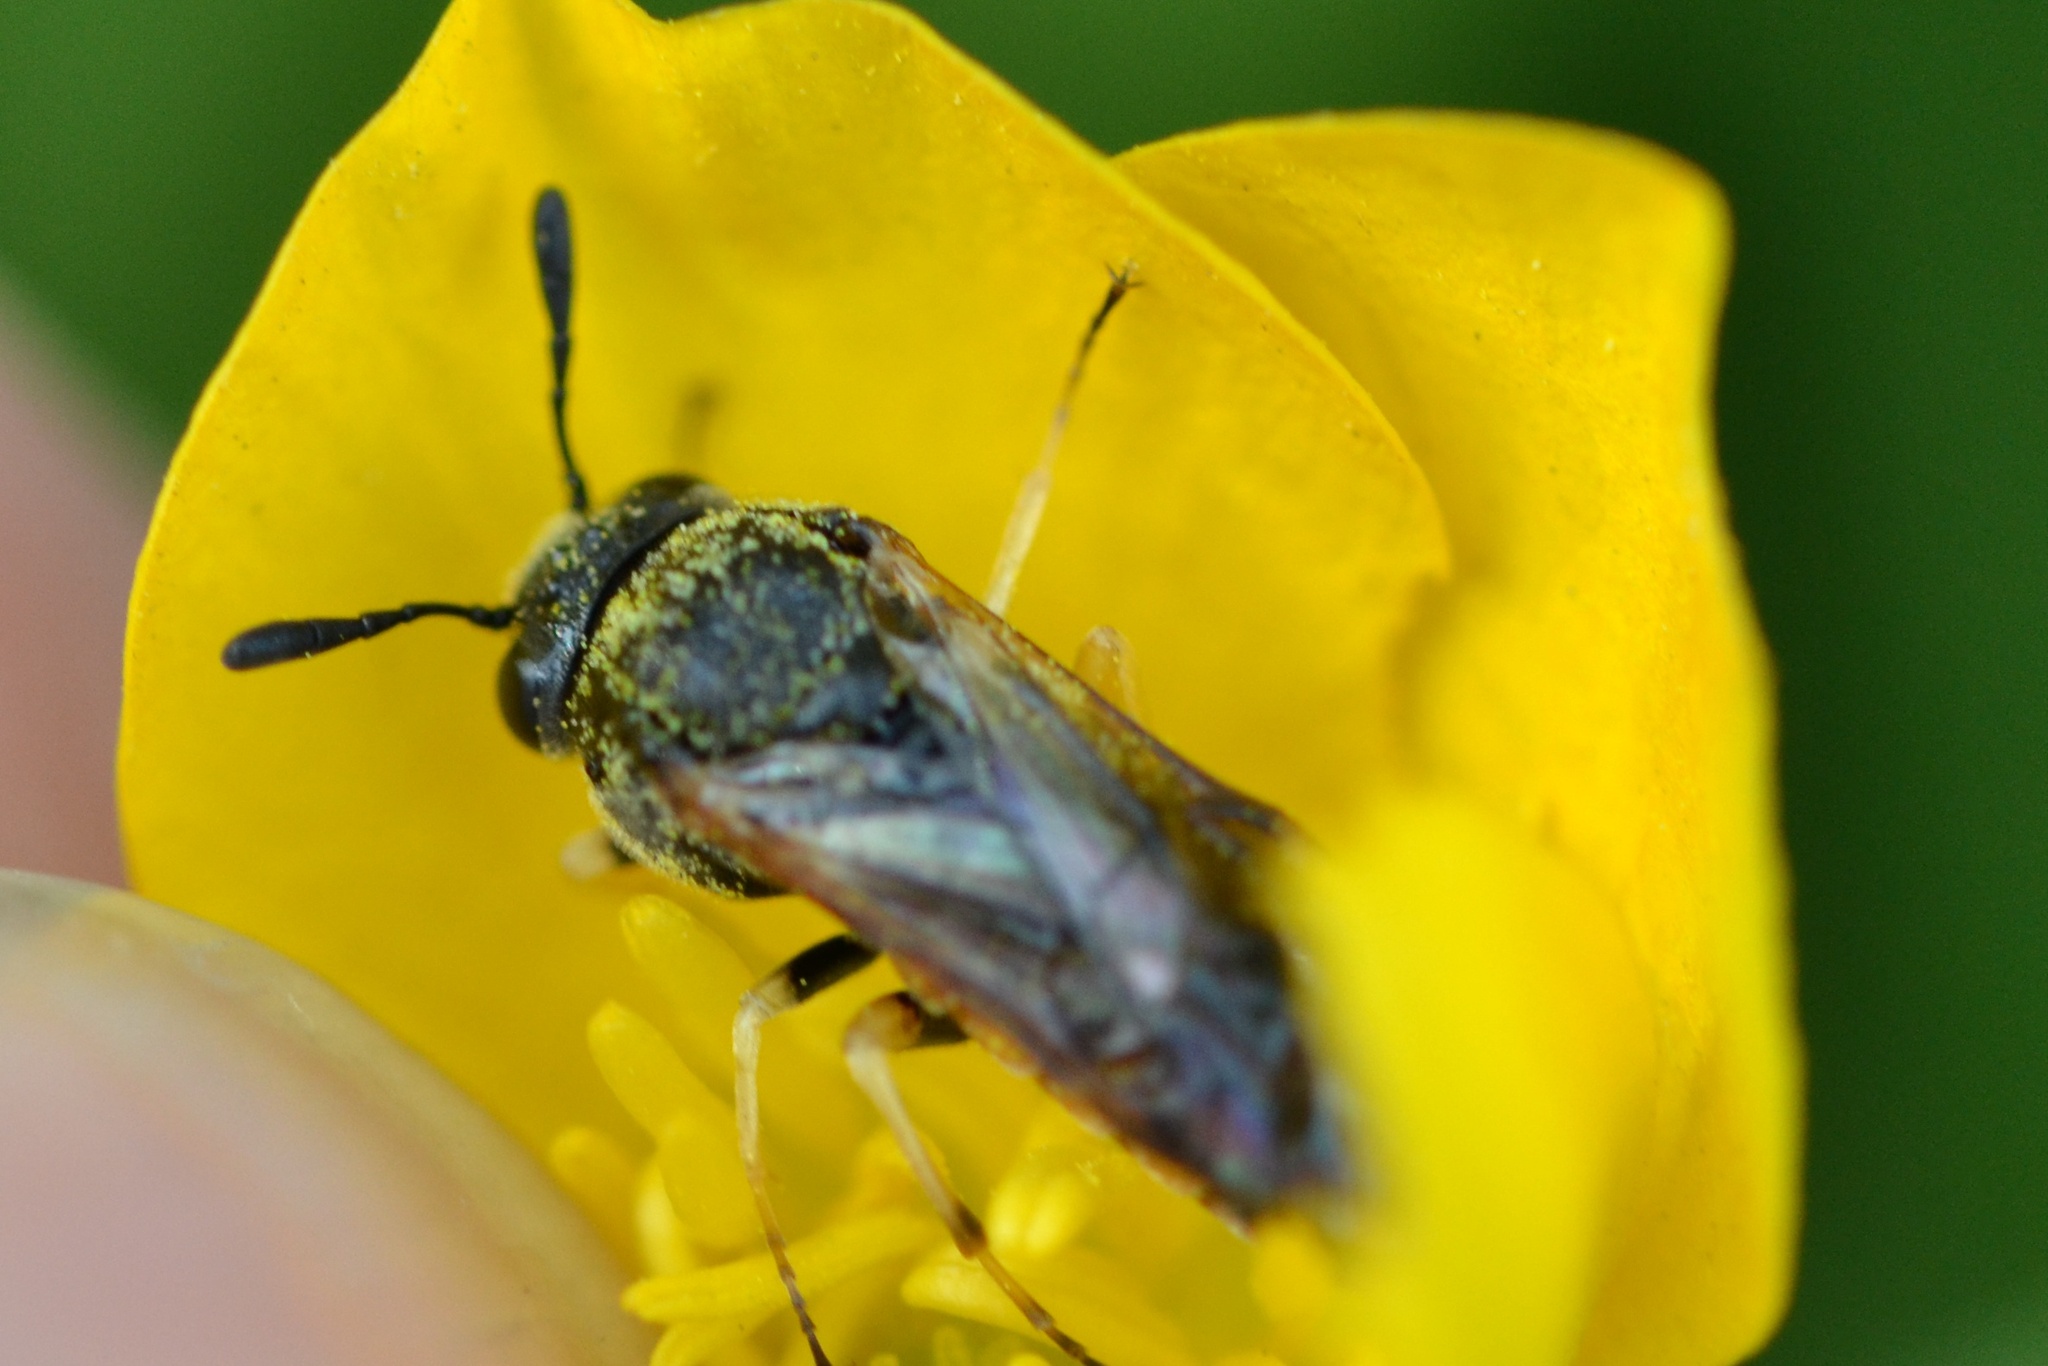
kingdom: Animalia
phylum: Arthropoda
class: Insecta
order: Hymenoptera
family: Cimbicidae
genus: Corynis
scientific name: Corynis crassicornis
